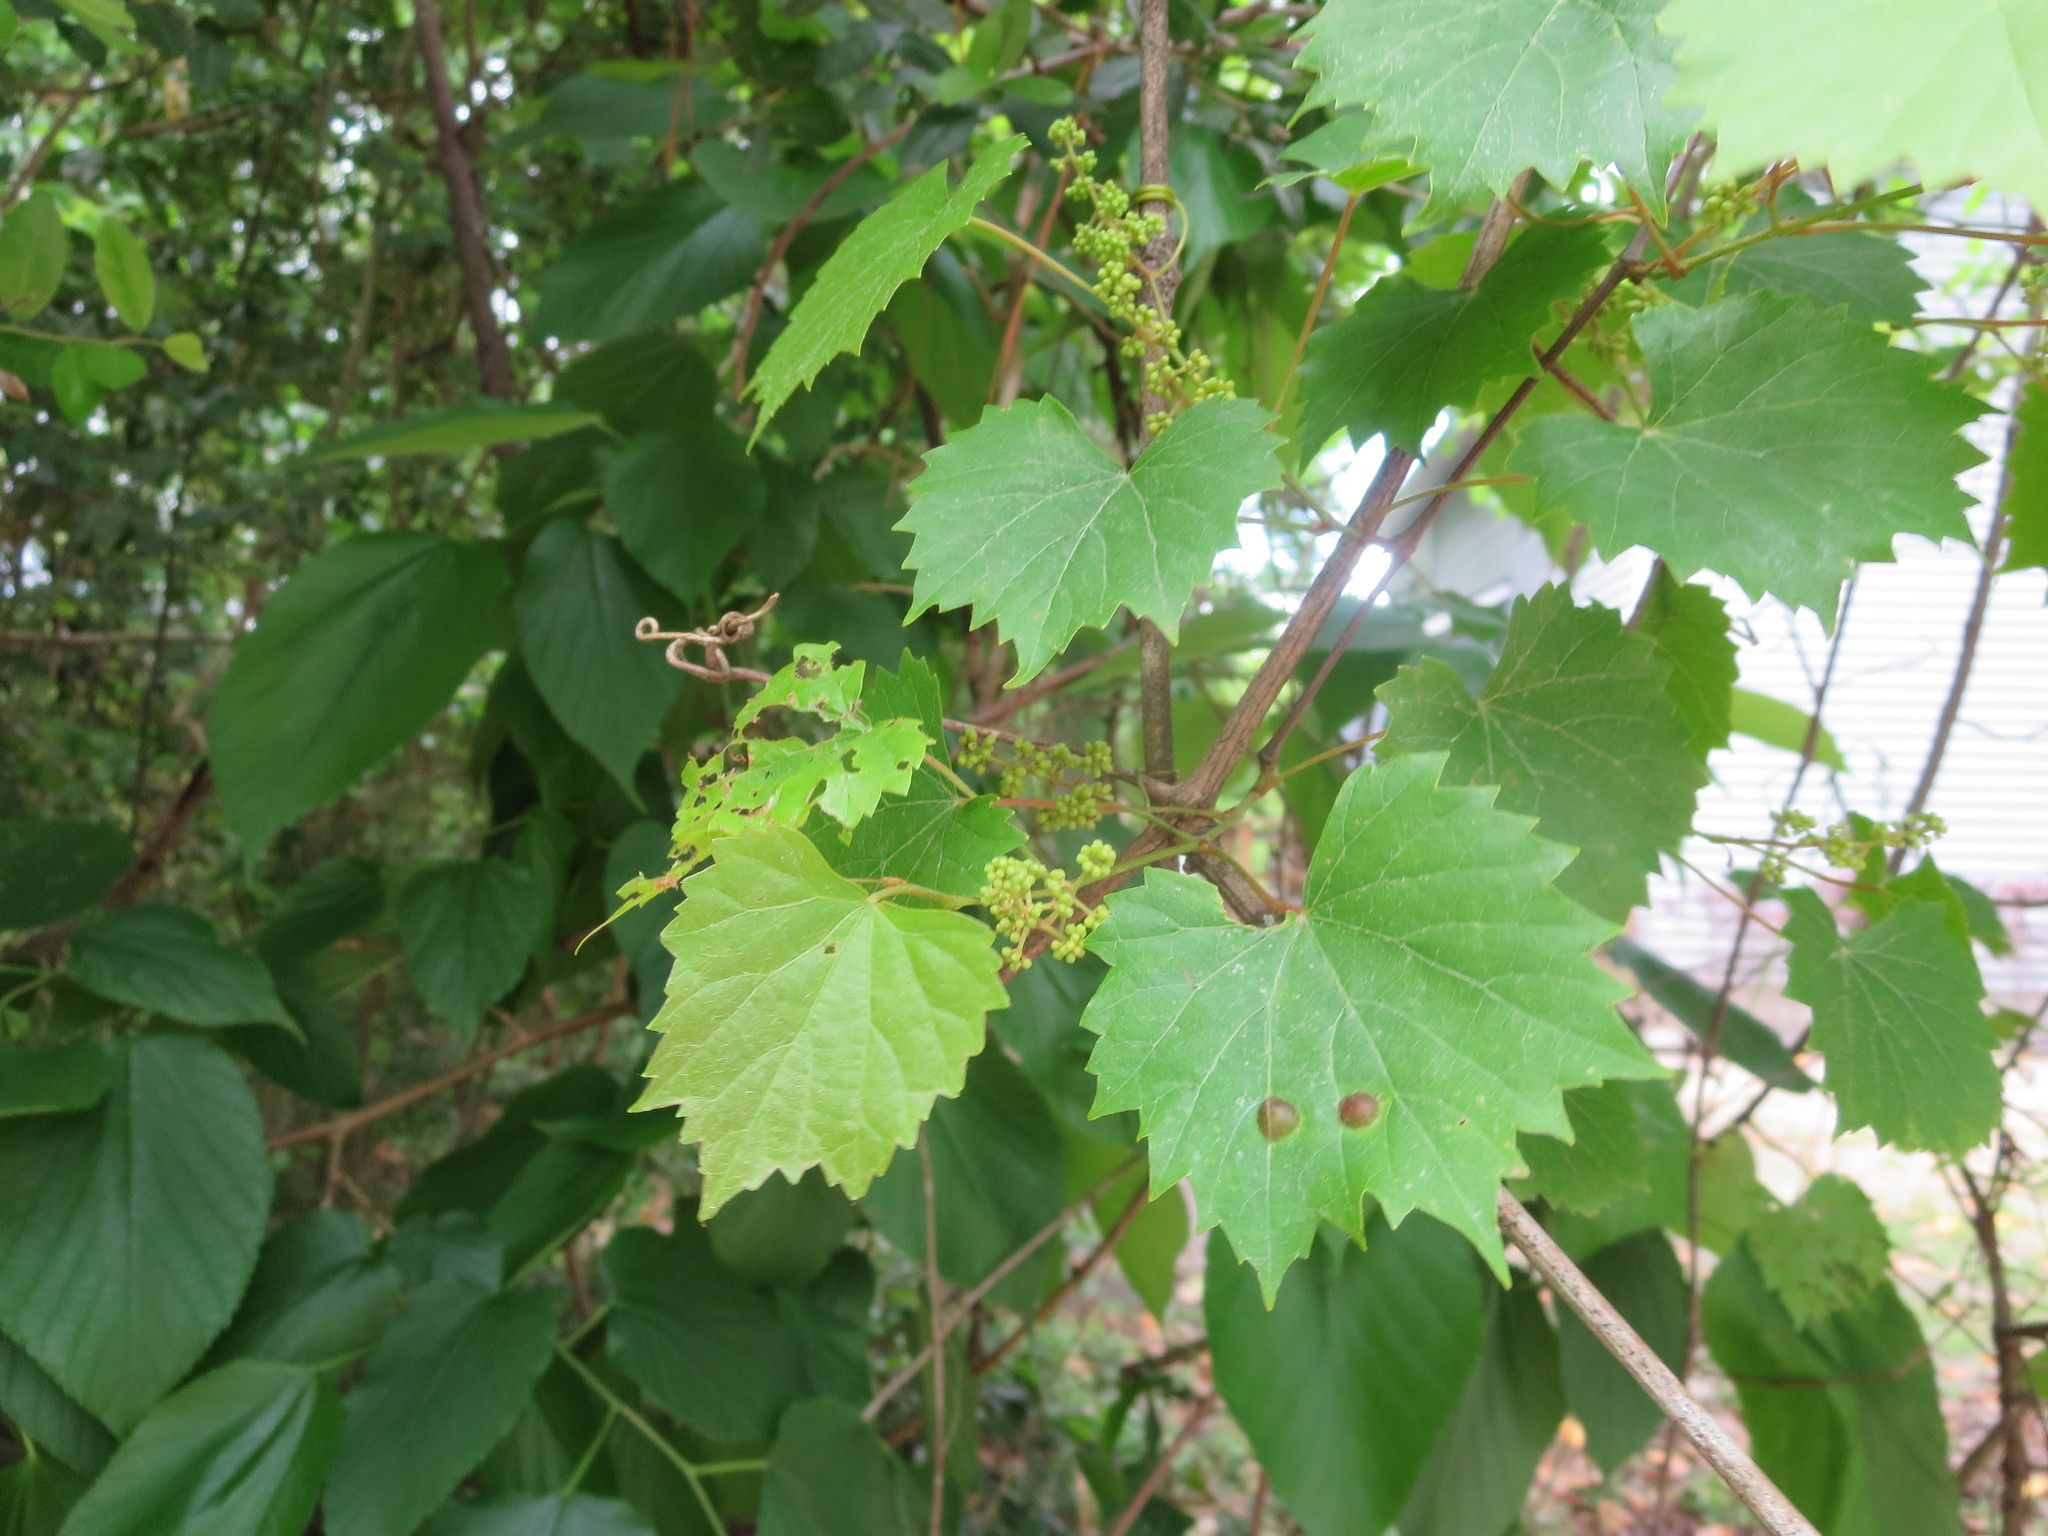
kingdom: Plantae
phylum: Tracheophyta
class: Magnoliopsida
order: Vitales
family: Vitaceae
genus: Vitis
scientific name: Vitis rotundifolia
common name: Muscadine grape
